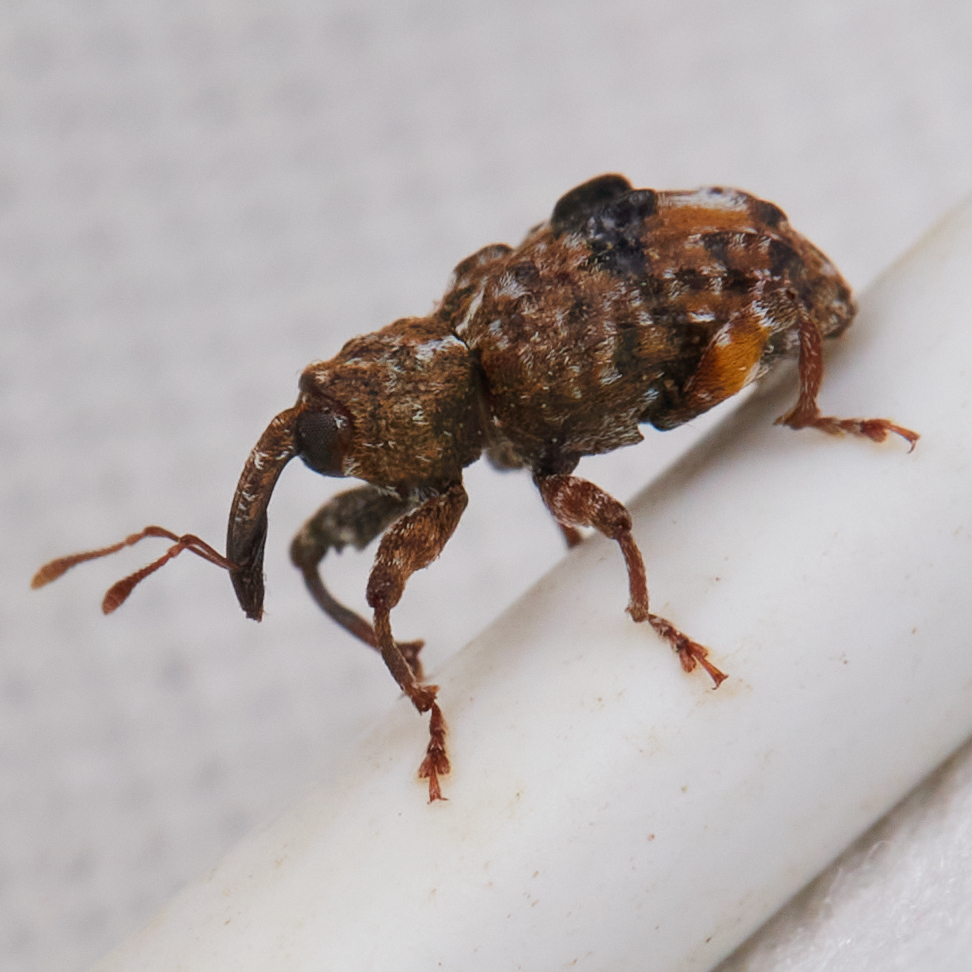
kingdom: Animalia
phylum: Arthropoda
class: Insecta
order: Coleoptera
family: Curculionidae
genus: Conotrachelus
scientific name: Conotrachelus nenuphar
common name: Plum curculio
